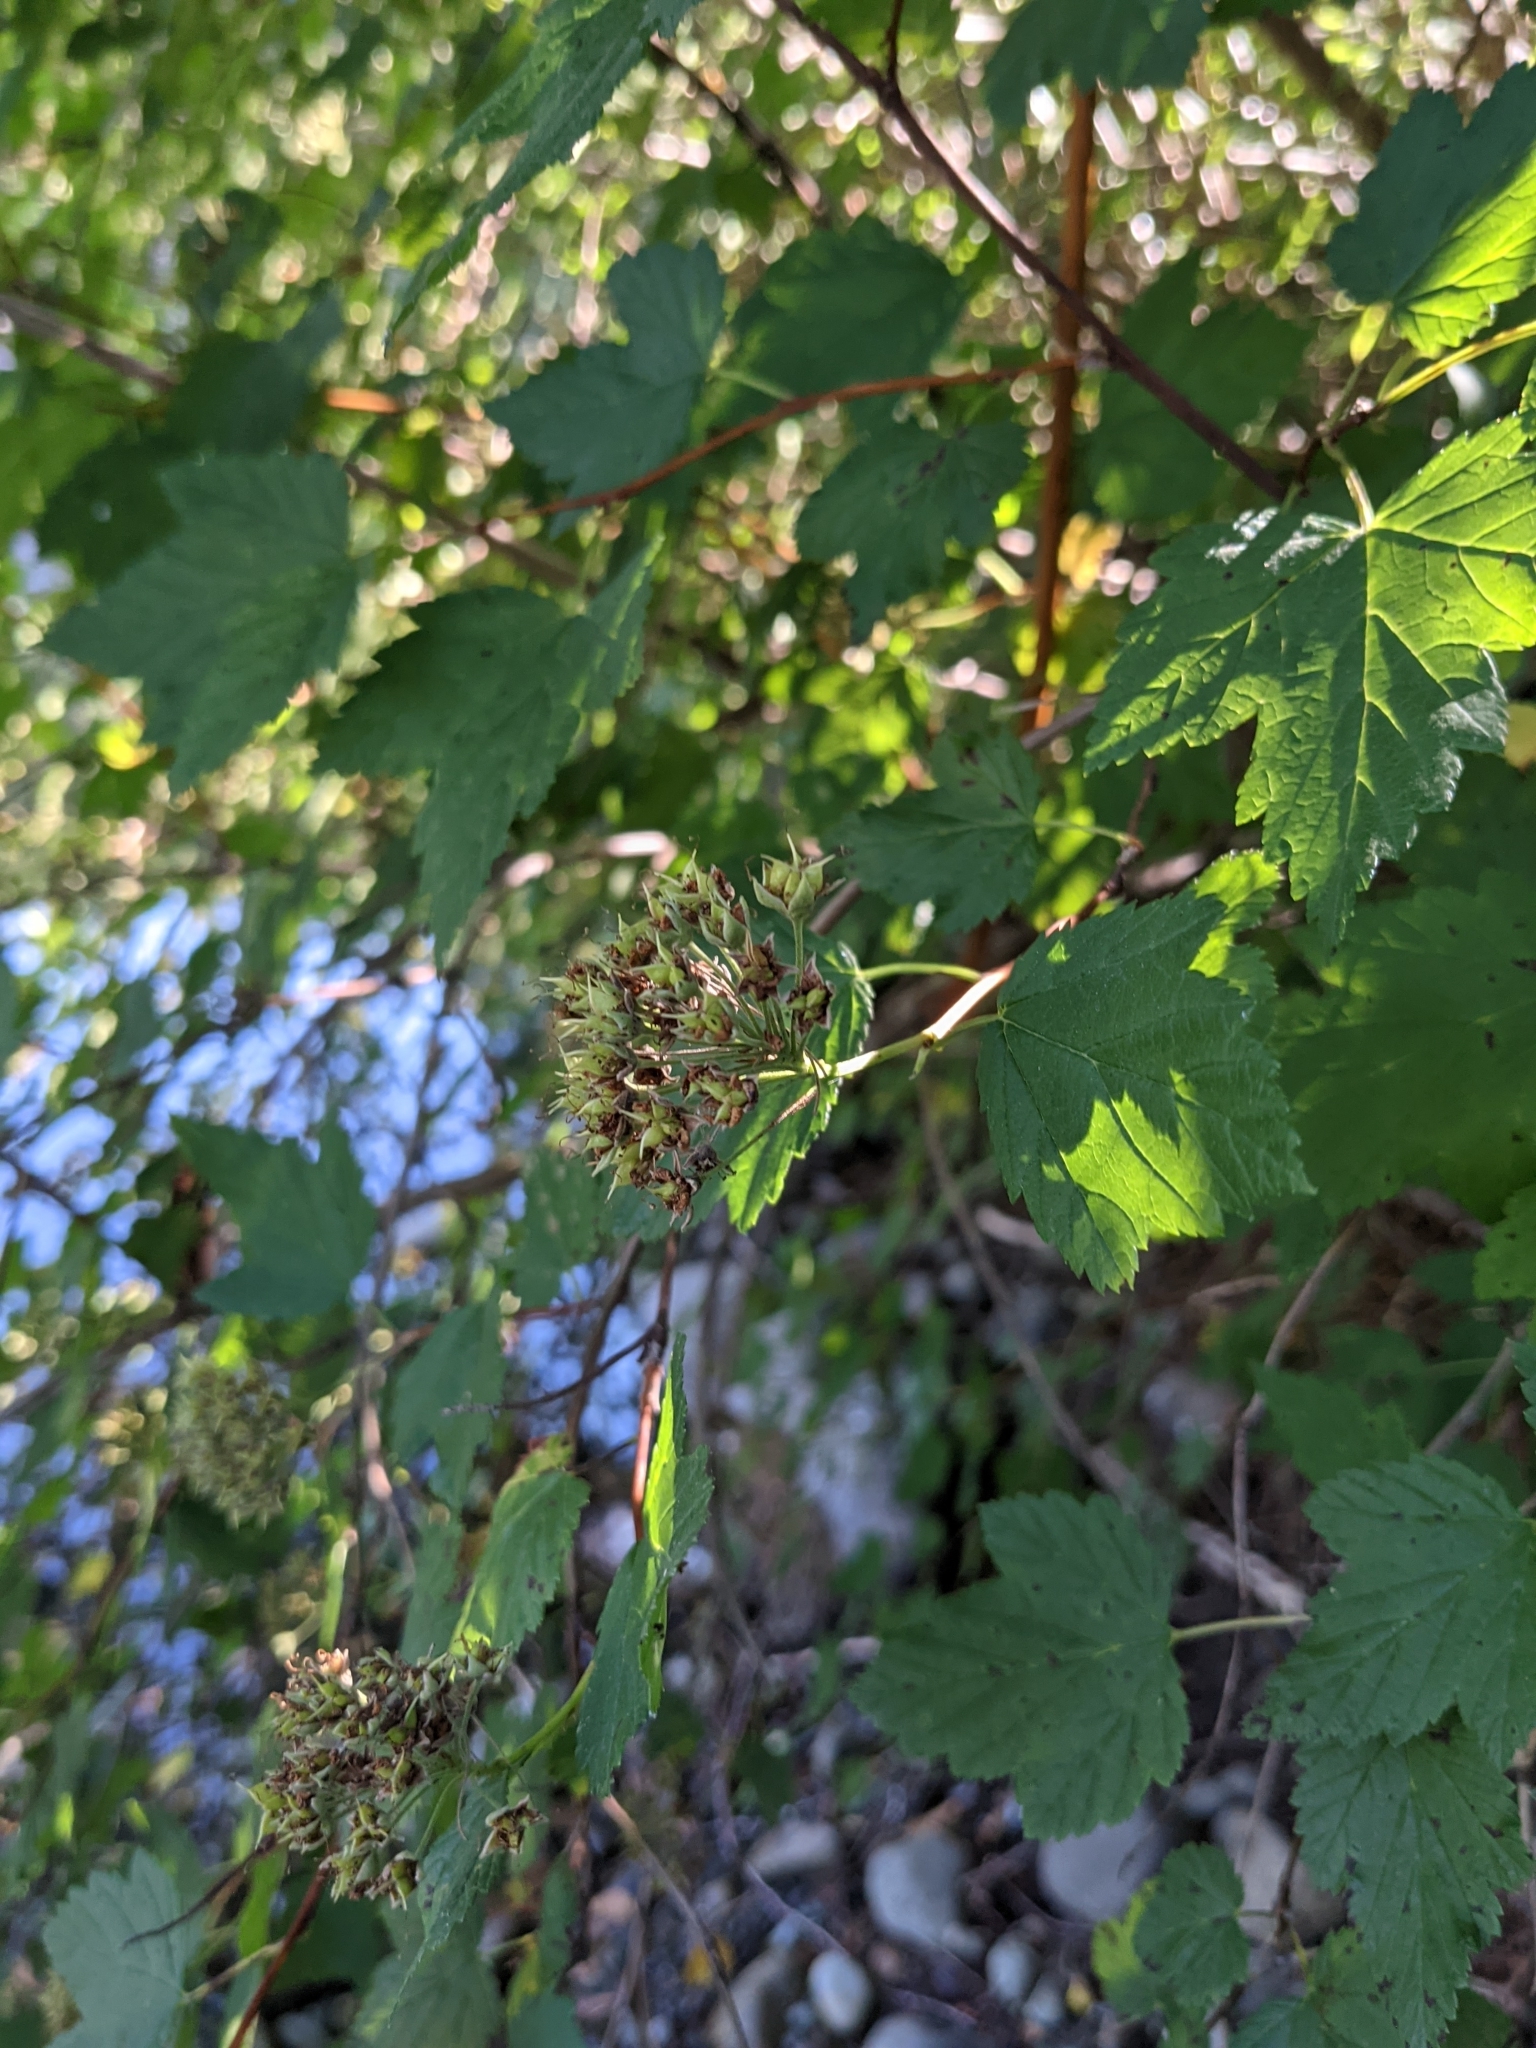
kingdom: Plantae
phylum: Tracheophyta
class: Magnoliopsida
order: Rosales
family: Rosaceae
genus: Physocarpus
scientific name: Physocarpus capitatus
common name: Pacific ninebark
